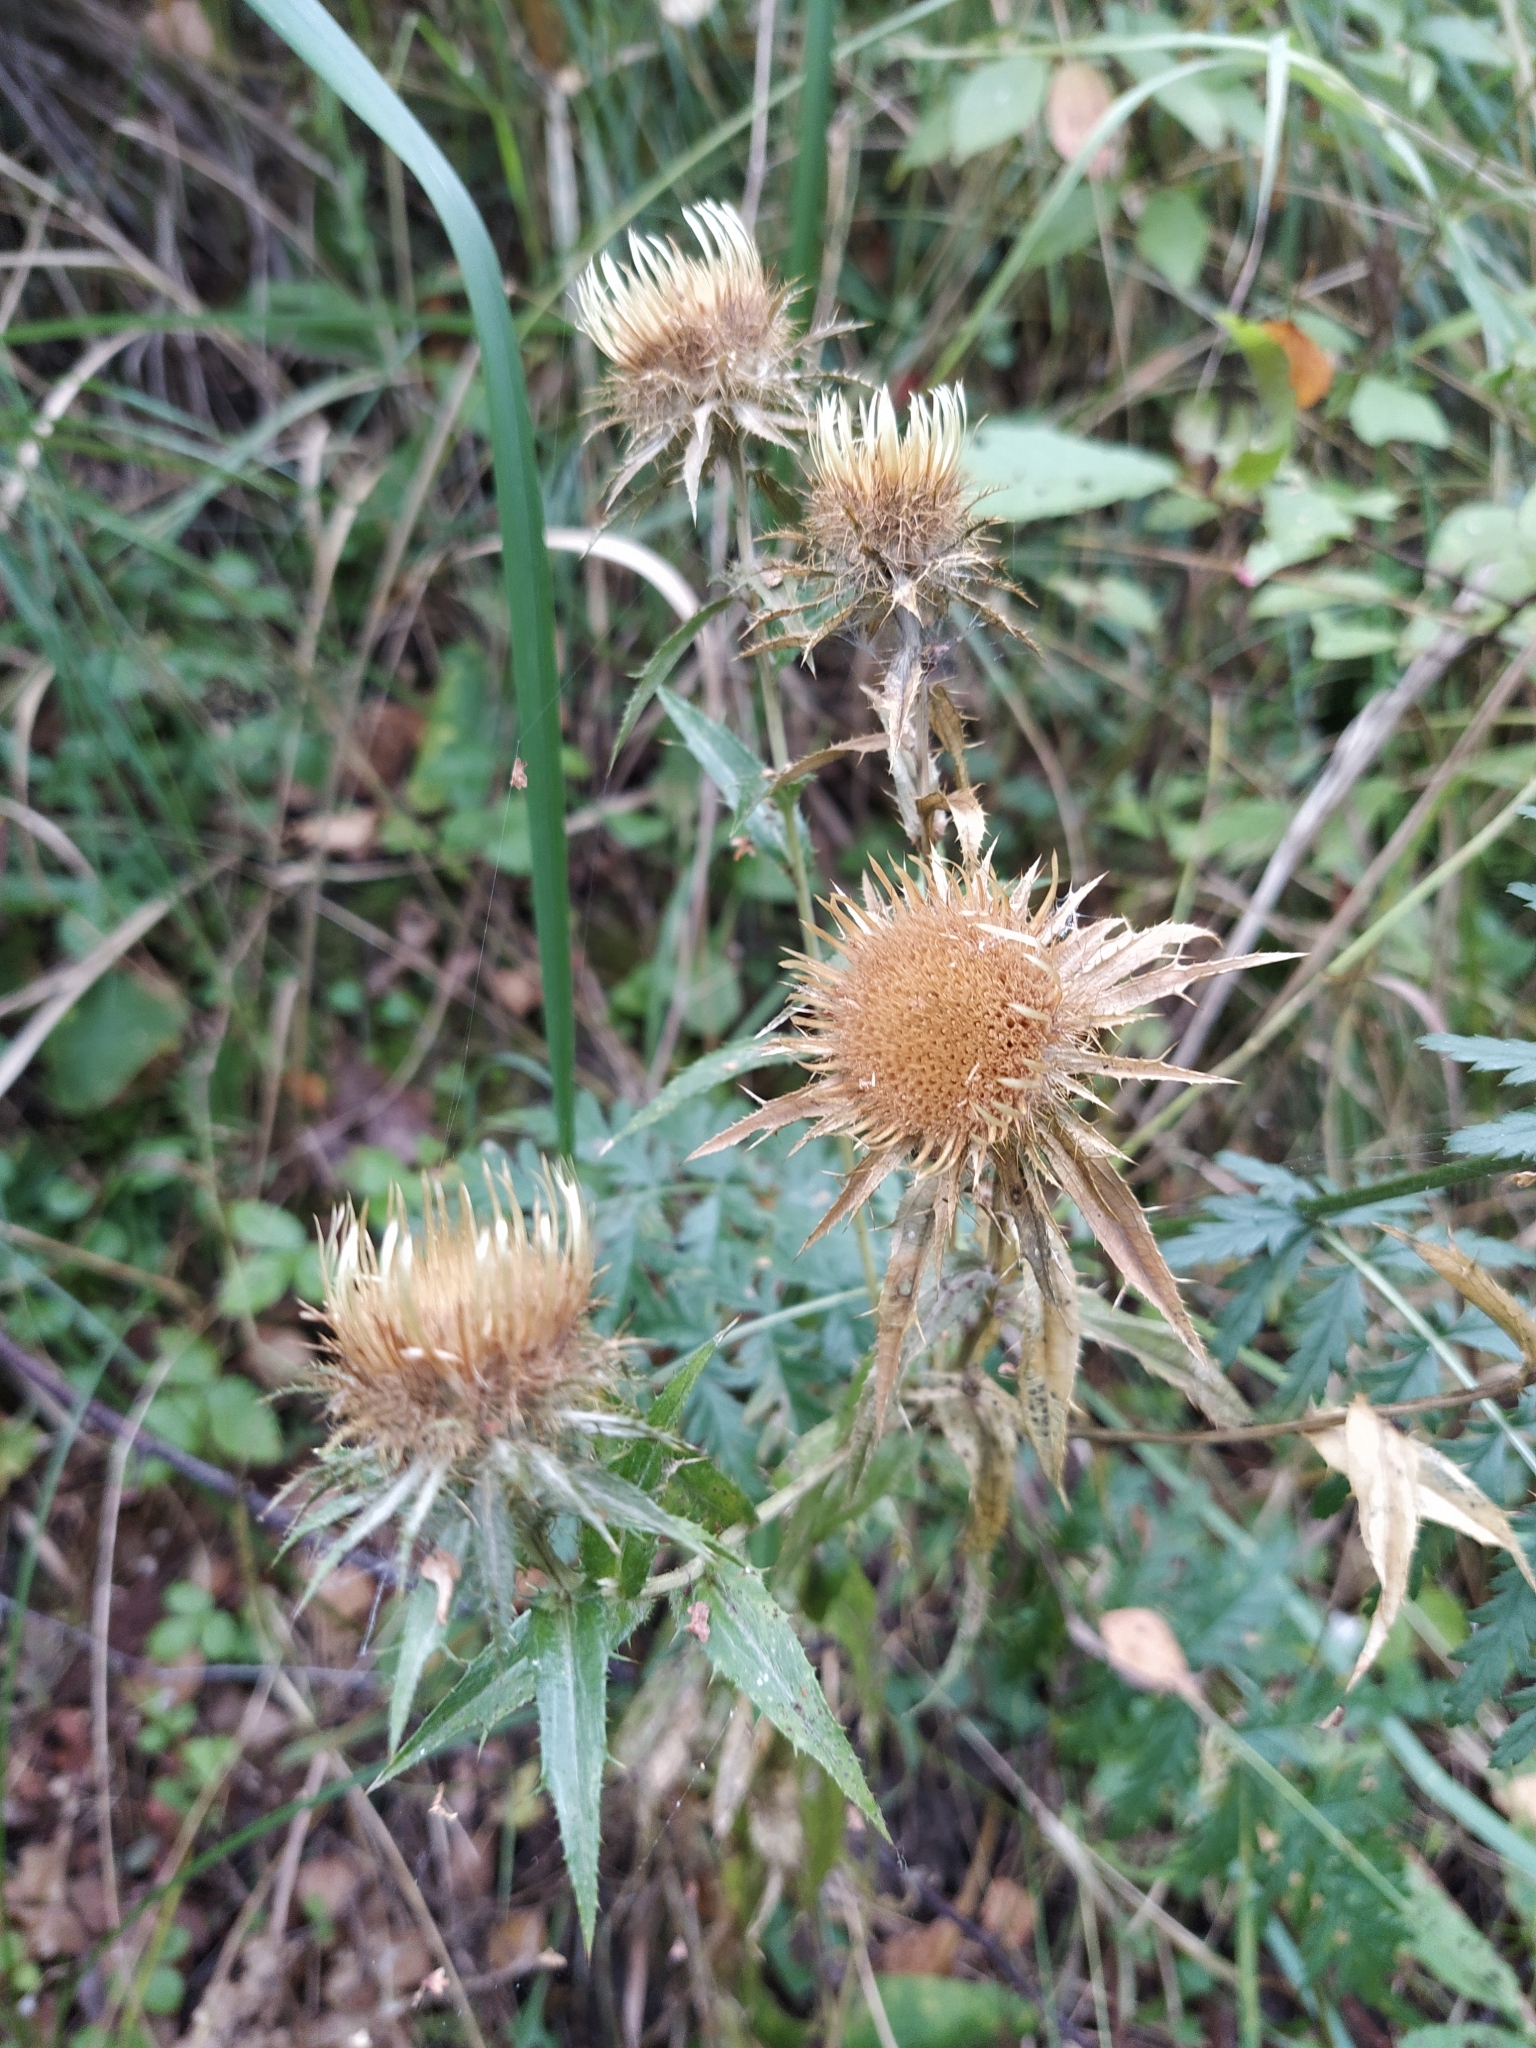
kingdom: Plantae
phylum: Tracheophyta
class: Magnoliopsida
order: Asterales
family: Asteraceae
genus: Carlina
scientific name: Carlina biebersteinii
